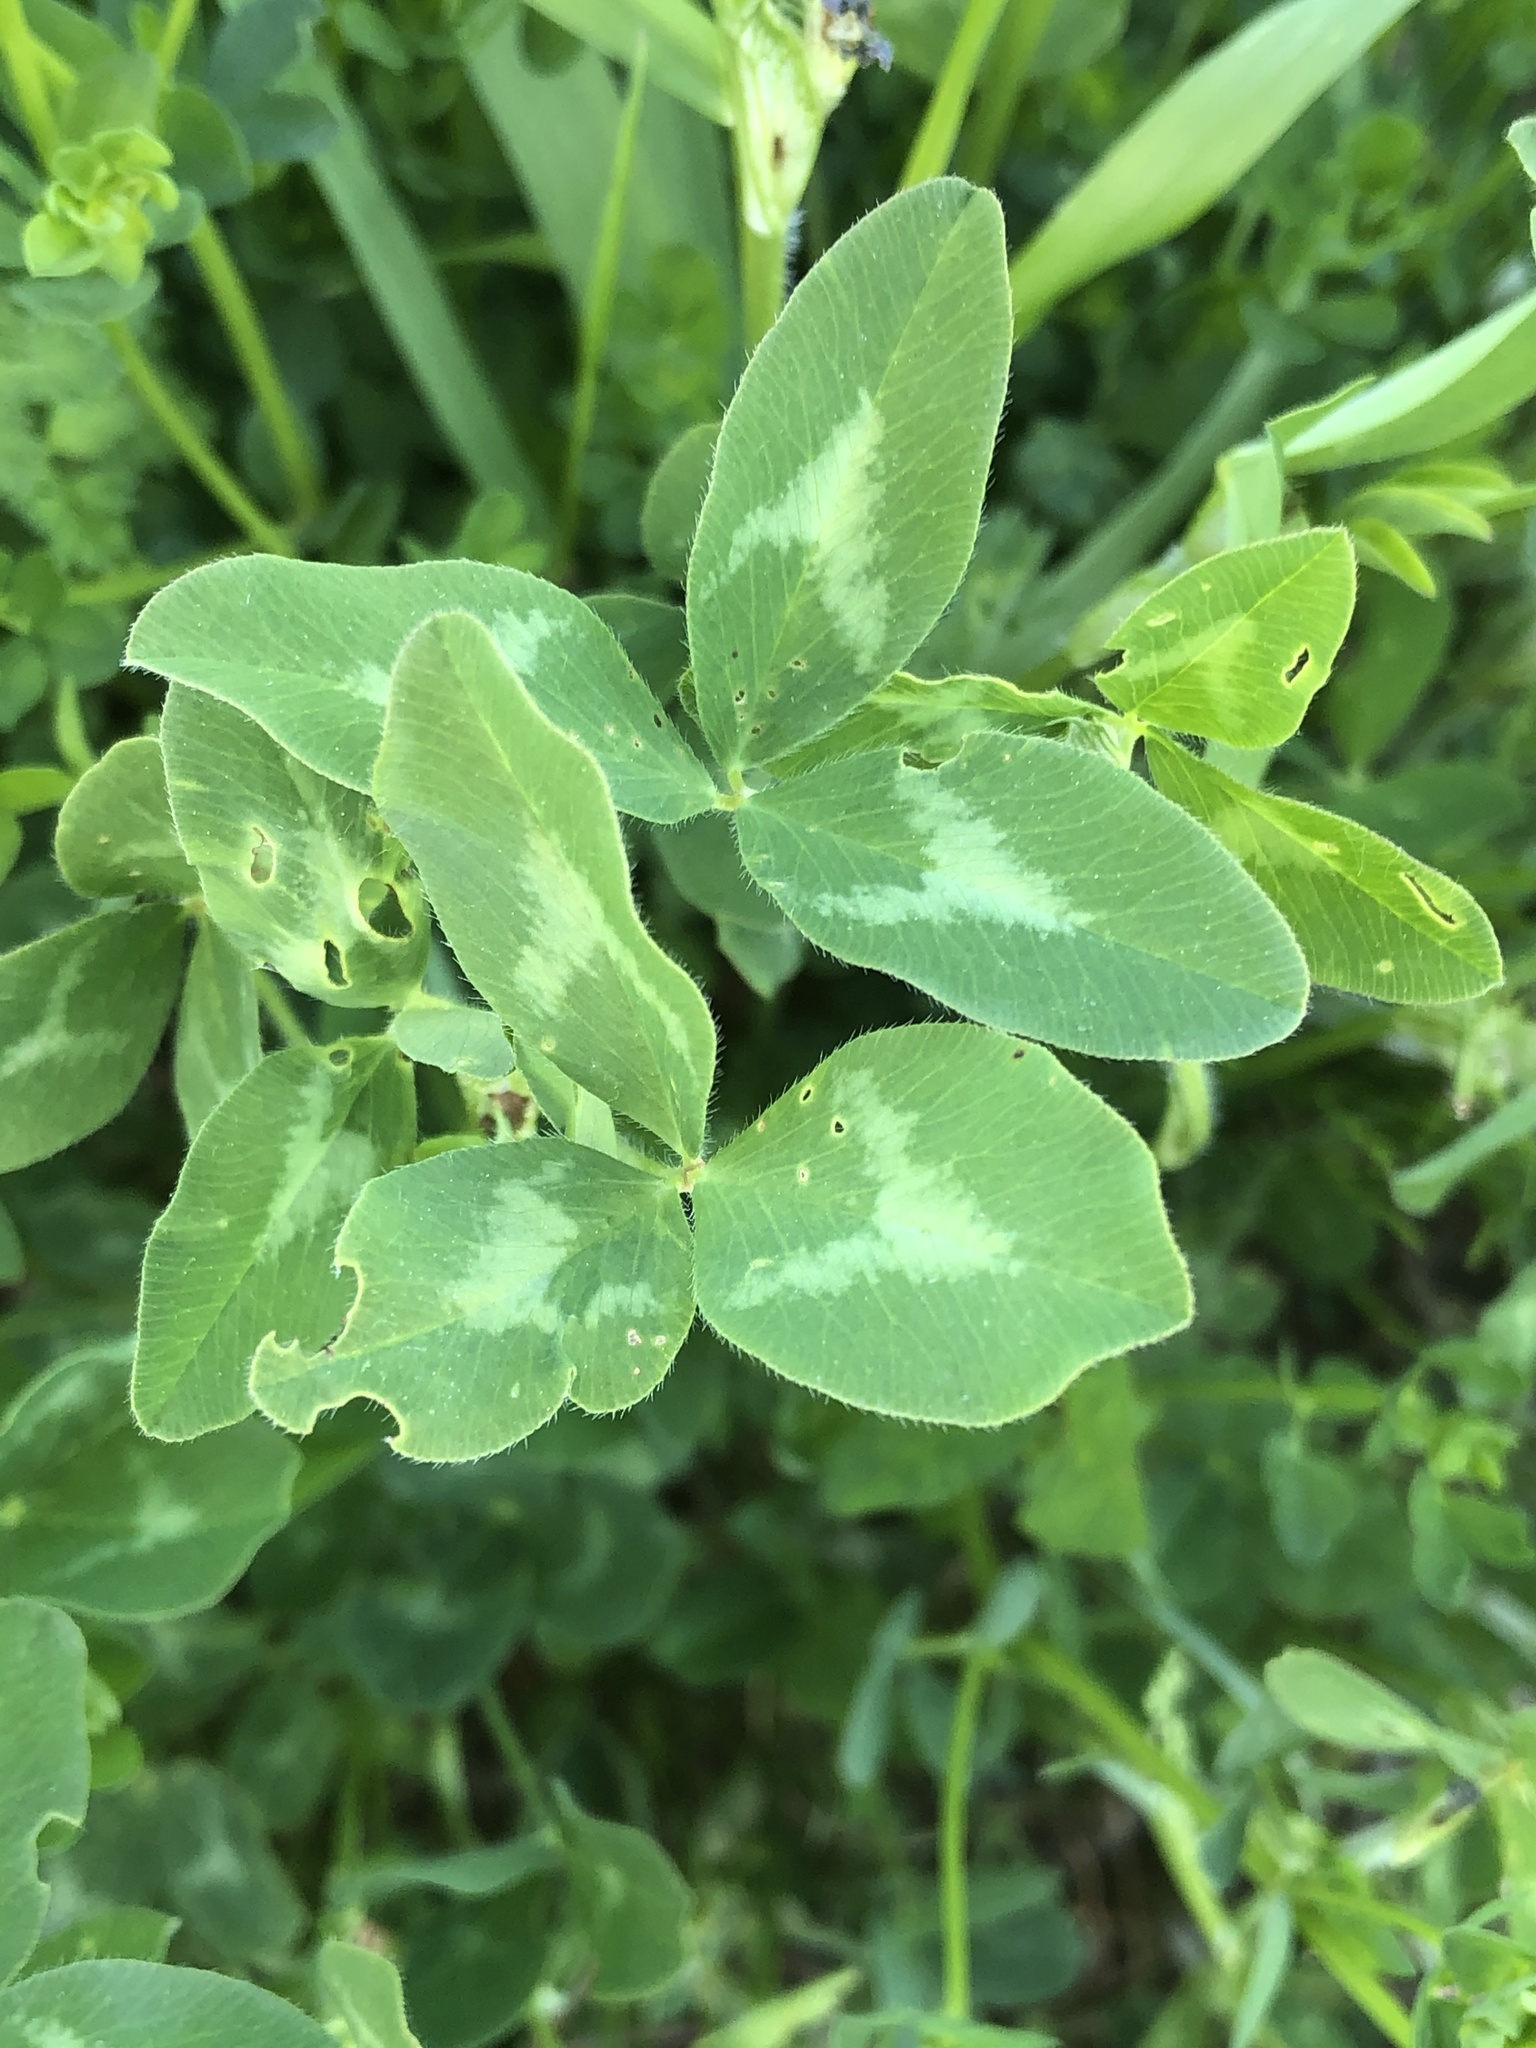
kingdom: Plantae
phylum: Tracheophyta
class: Magnoliopsida
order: Fabales
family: Fabaceae
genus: Trifolium
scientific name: Trifolium pratense
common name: Red clover
